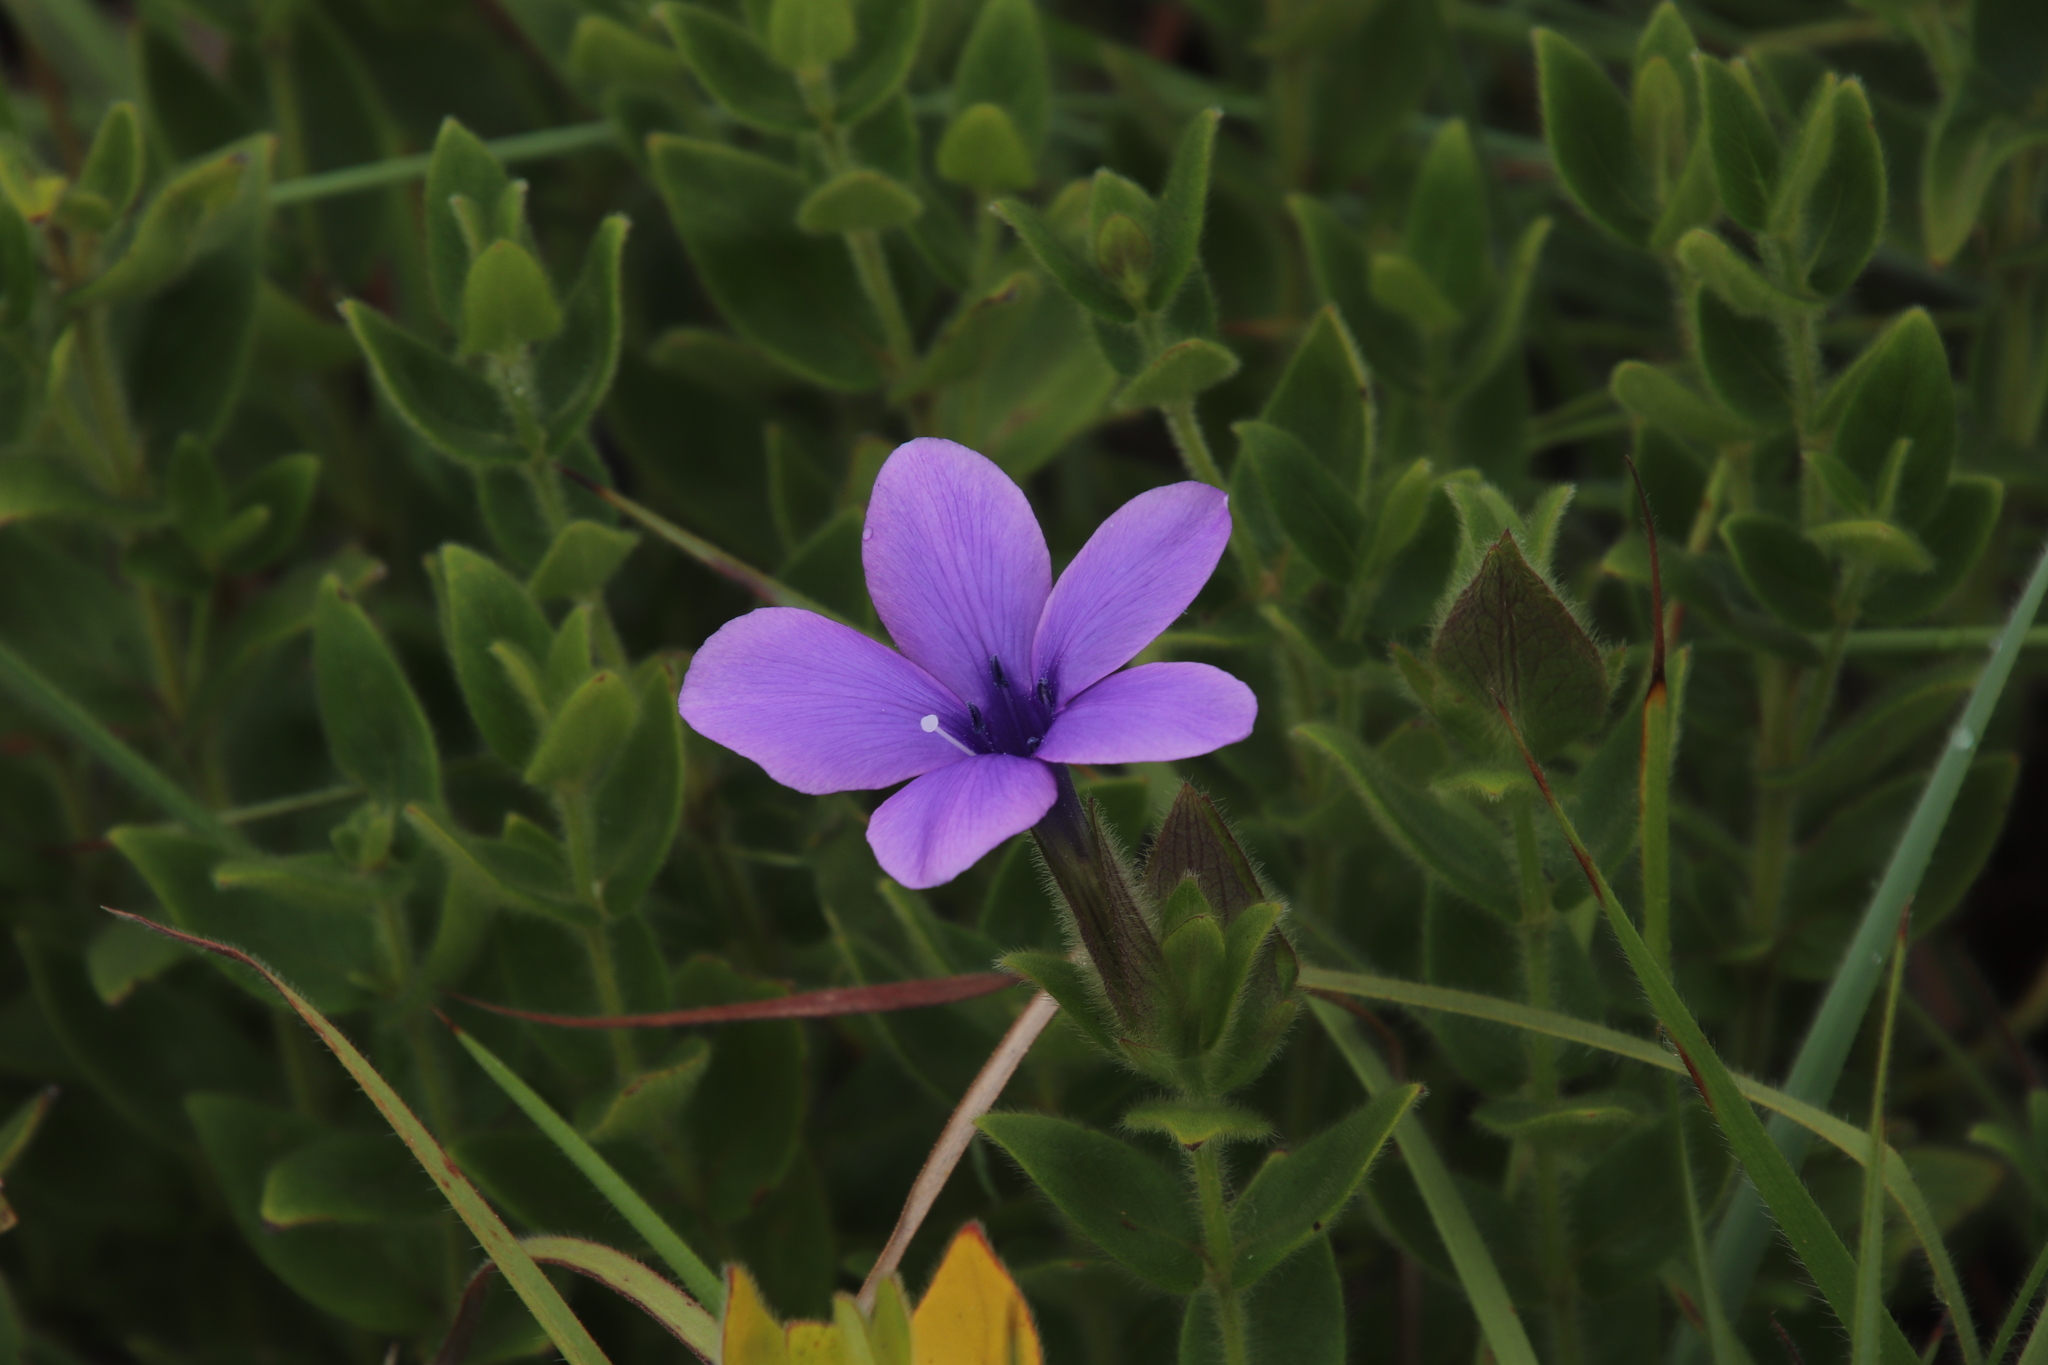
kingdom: Plantae
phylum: Tracheophyta
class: Magnoliopsida
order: Lamiales
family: Acanthaceae
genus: Barleria
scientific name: Barleria ovata
